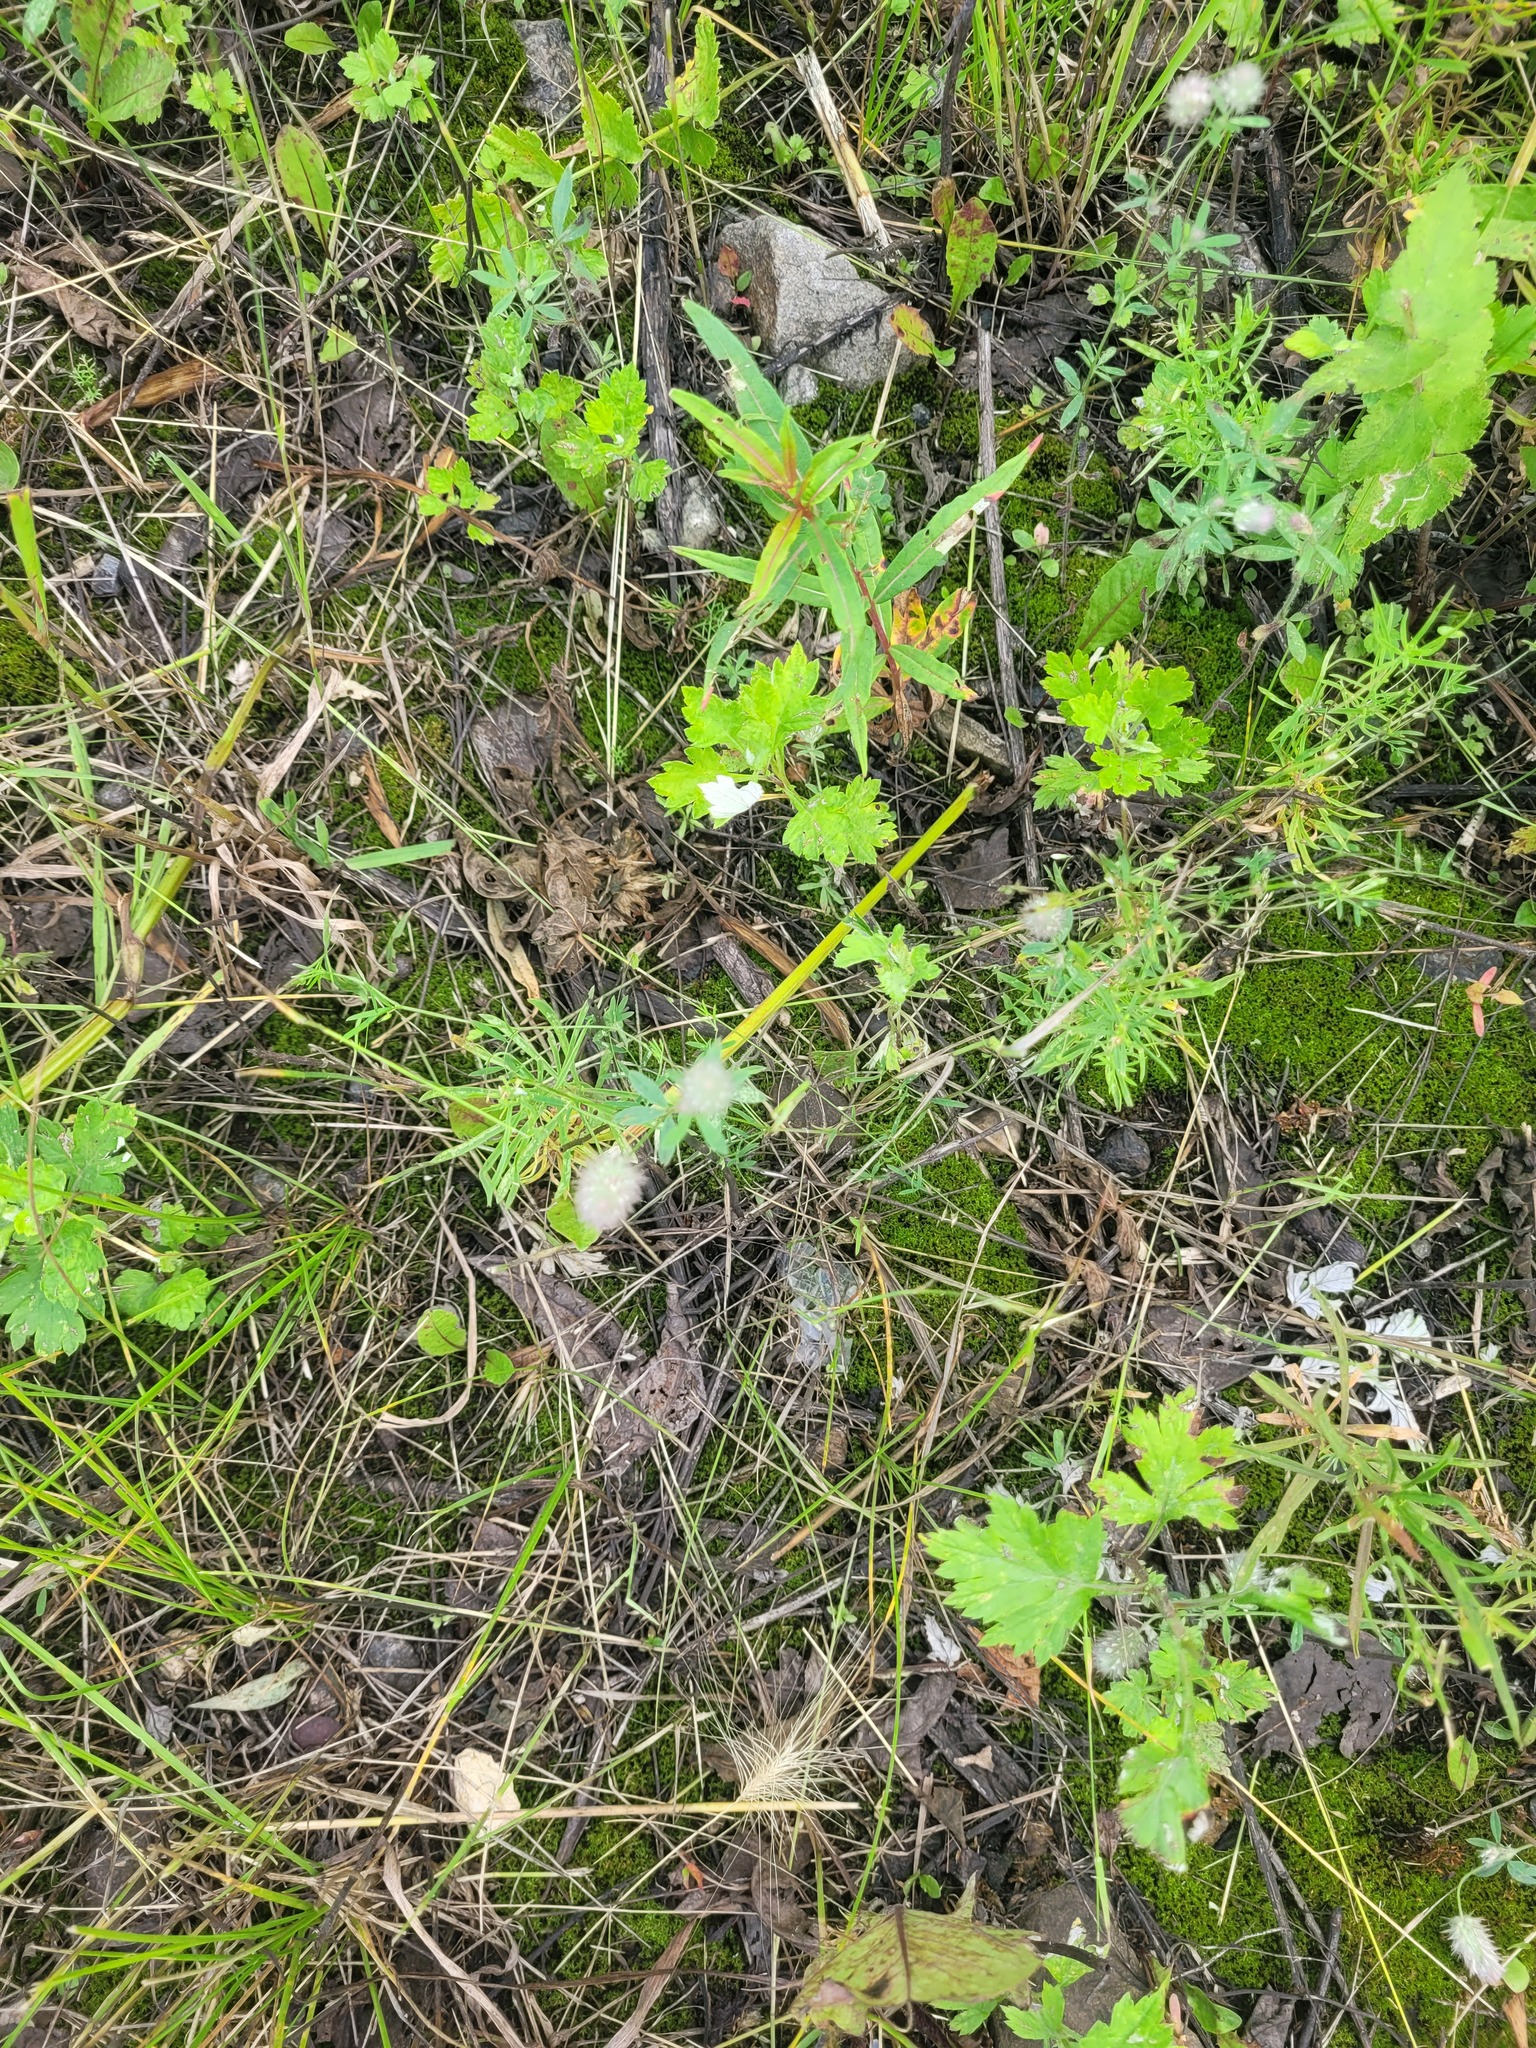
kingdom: Plantae
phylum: Tracheophyta
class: Magnoliopsida
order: Fabales
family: Fabaceae
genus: Trifolium
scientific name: Trifolium arvense
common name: Hare's-foot clover
